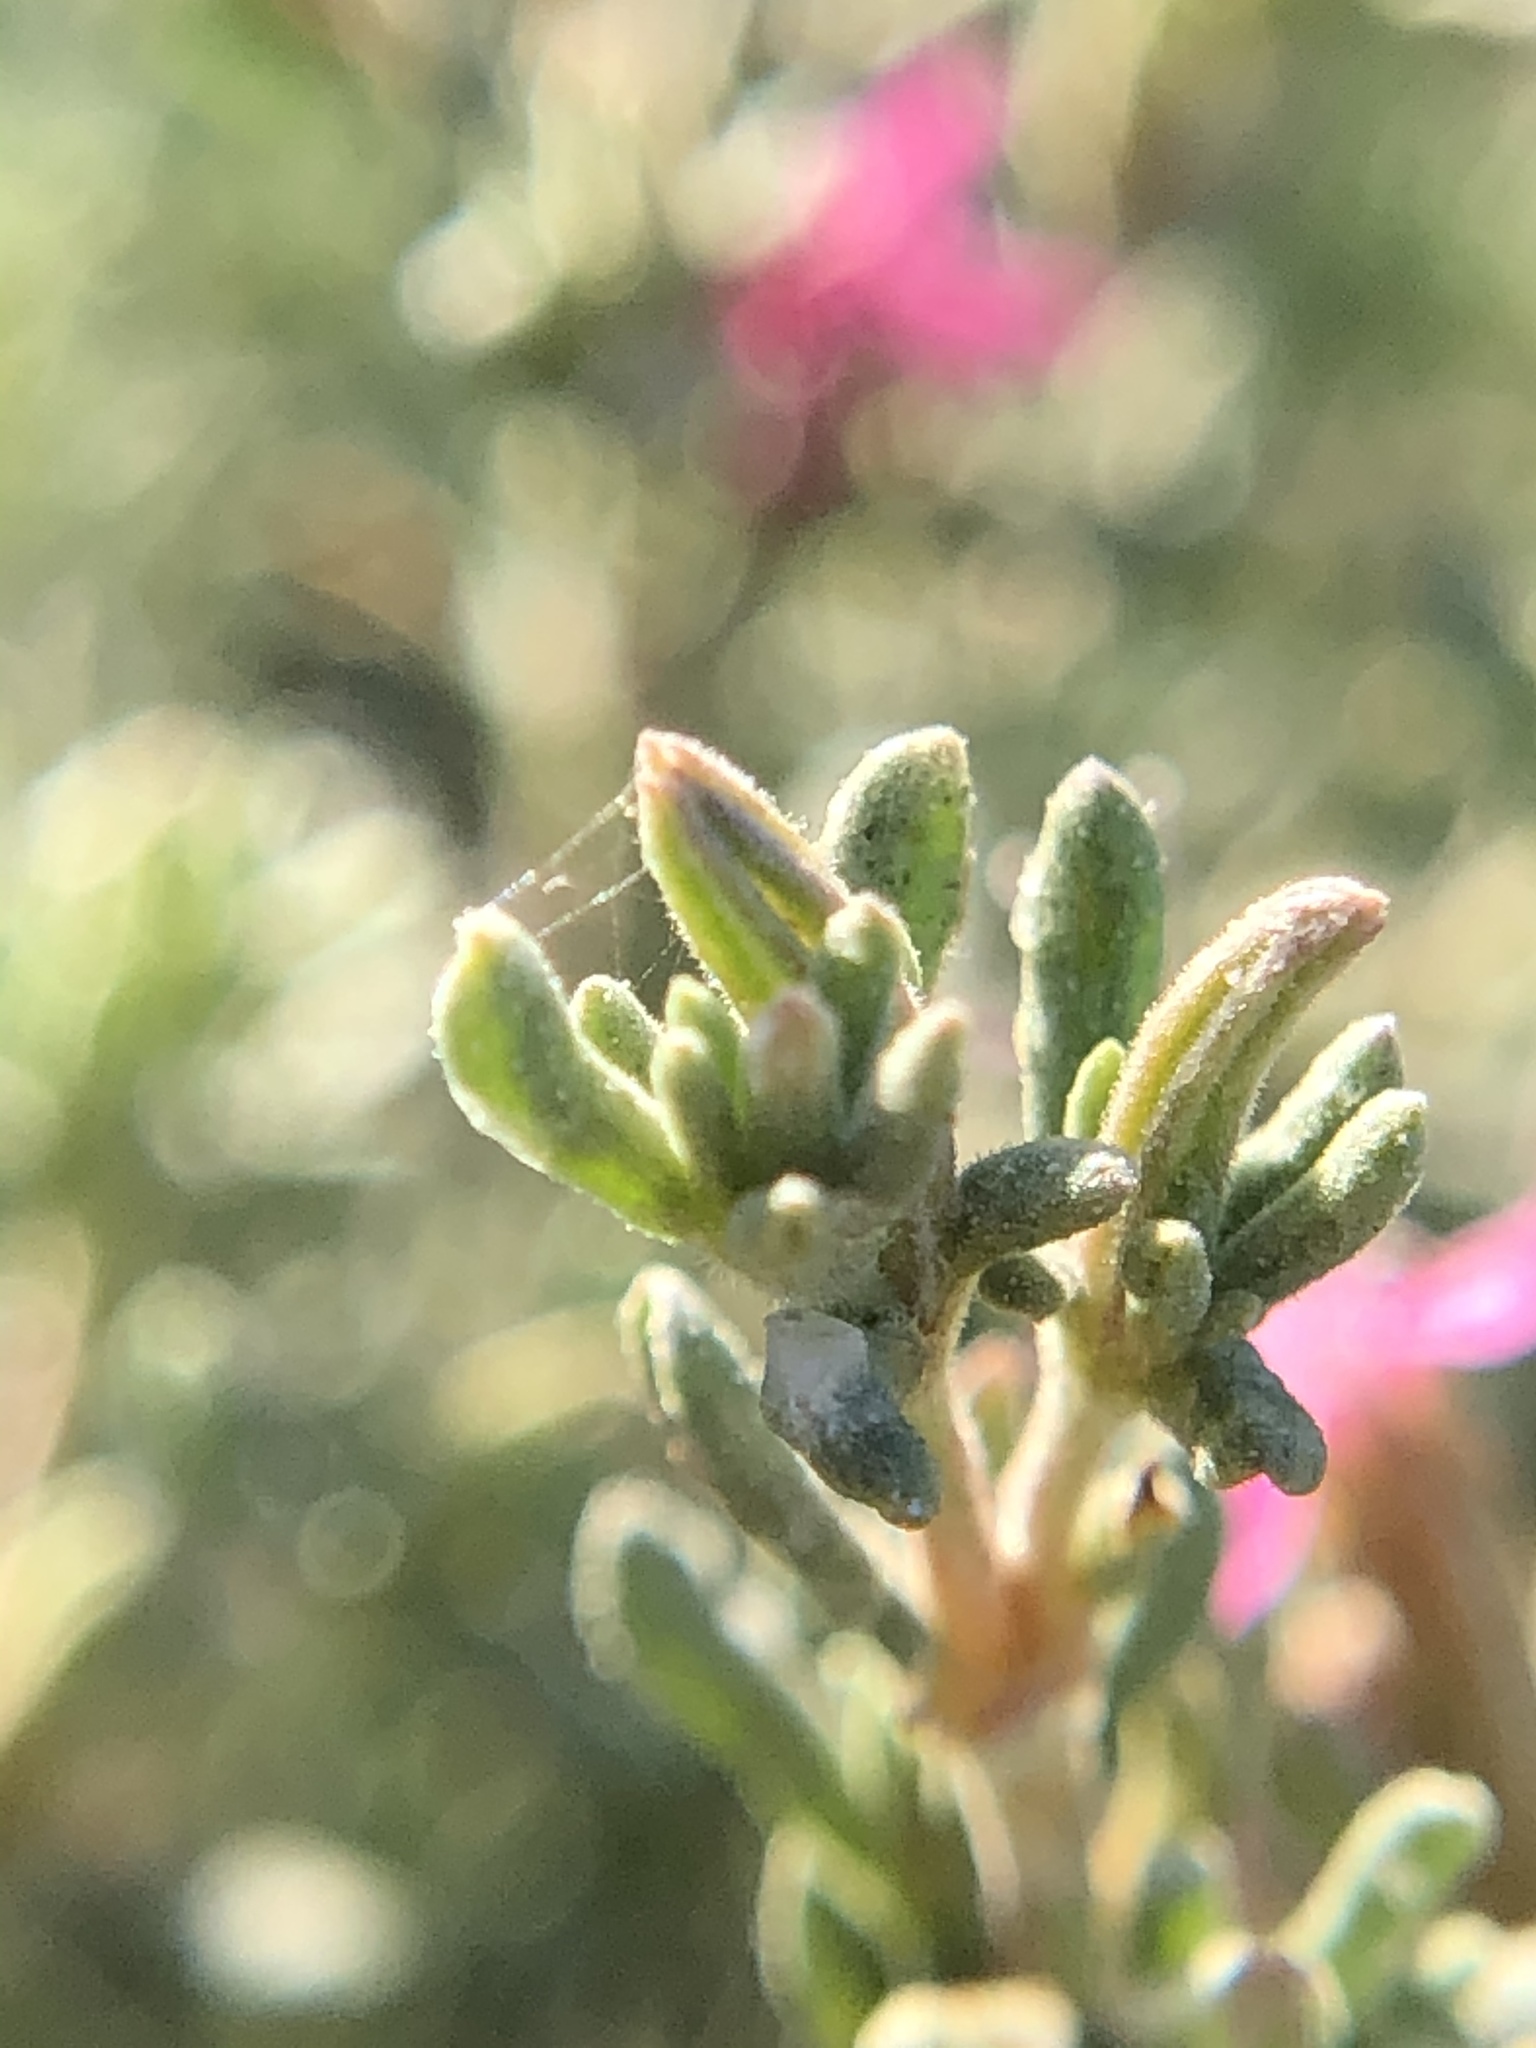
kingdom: Plantae
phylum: Tracheophyta
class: Magnoliopsida
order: Caryophyllales
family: Frankeniaceae
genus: Frankenia
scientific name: Frankenia salina
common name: Alkali seaheath
